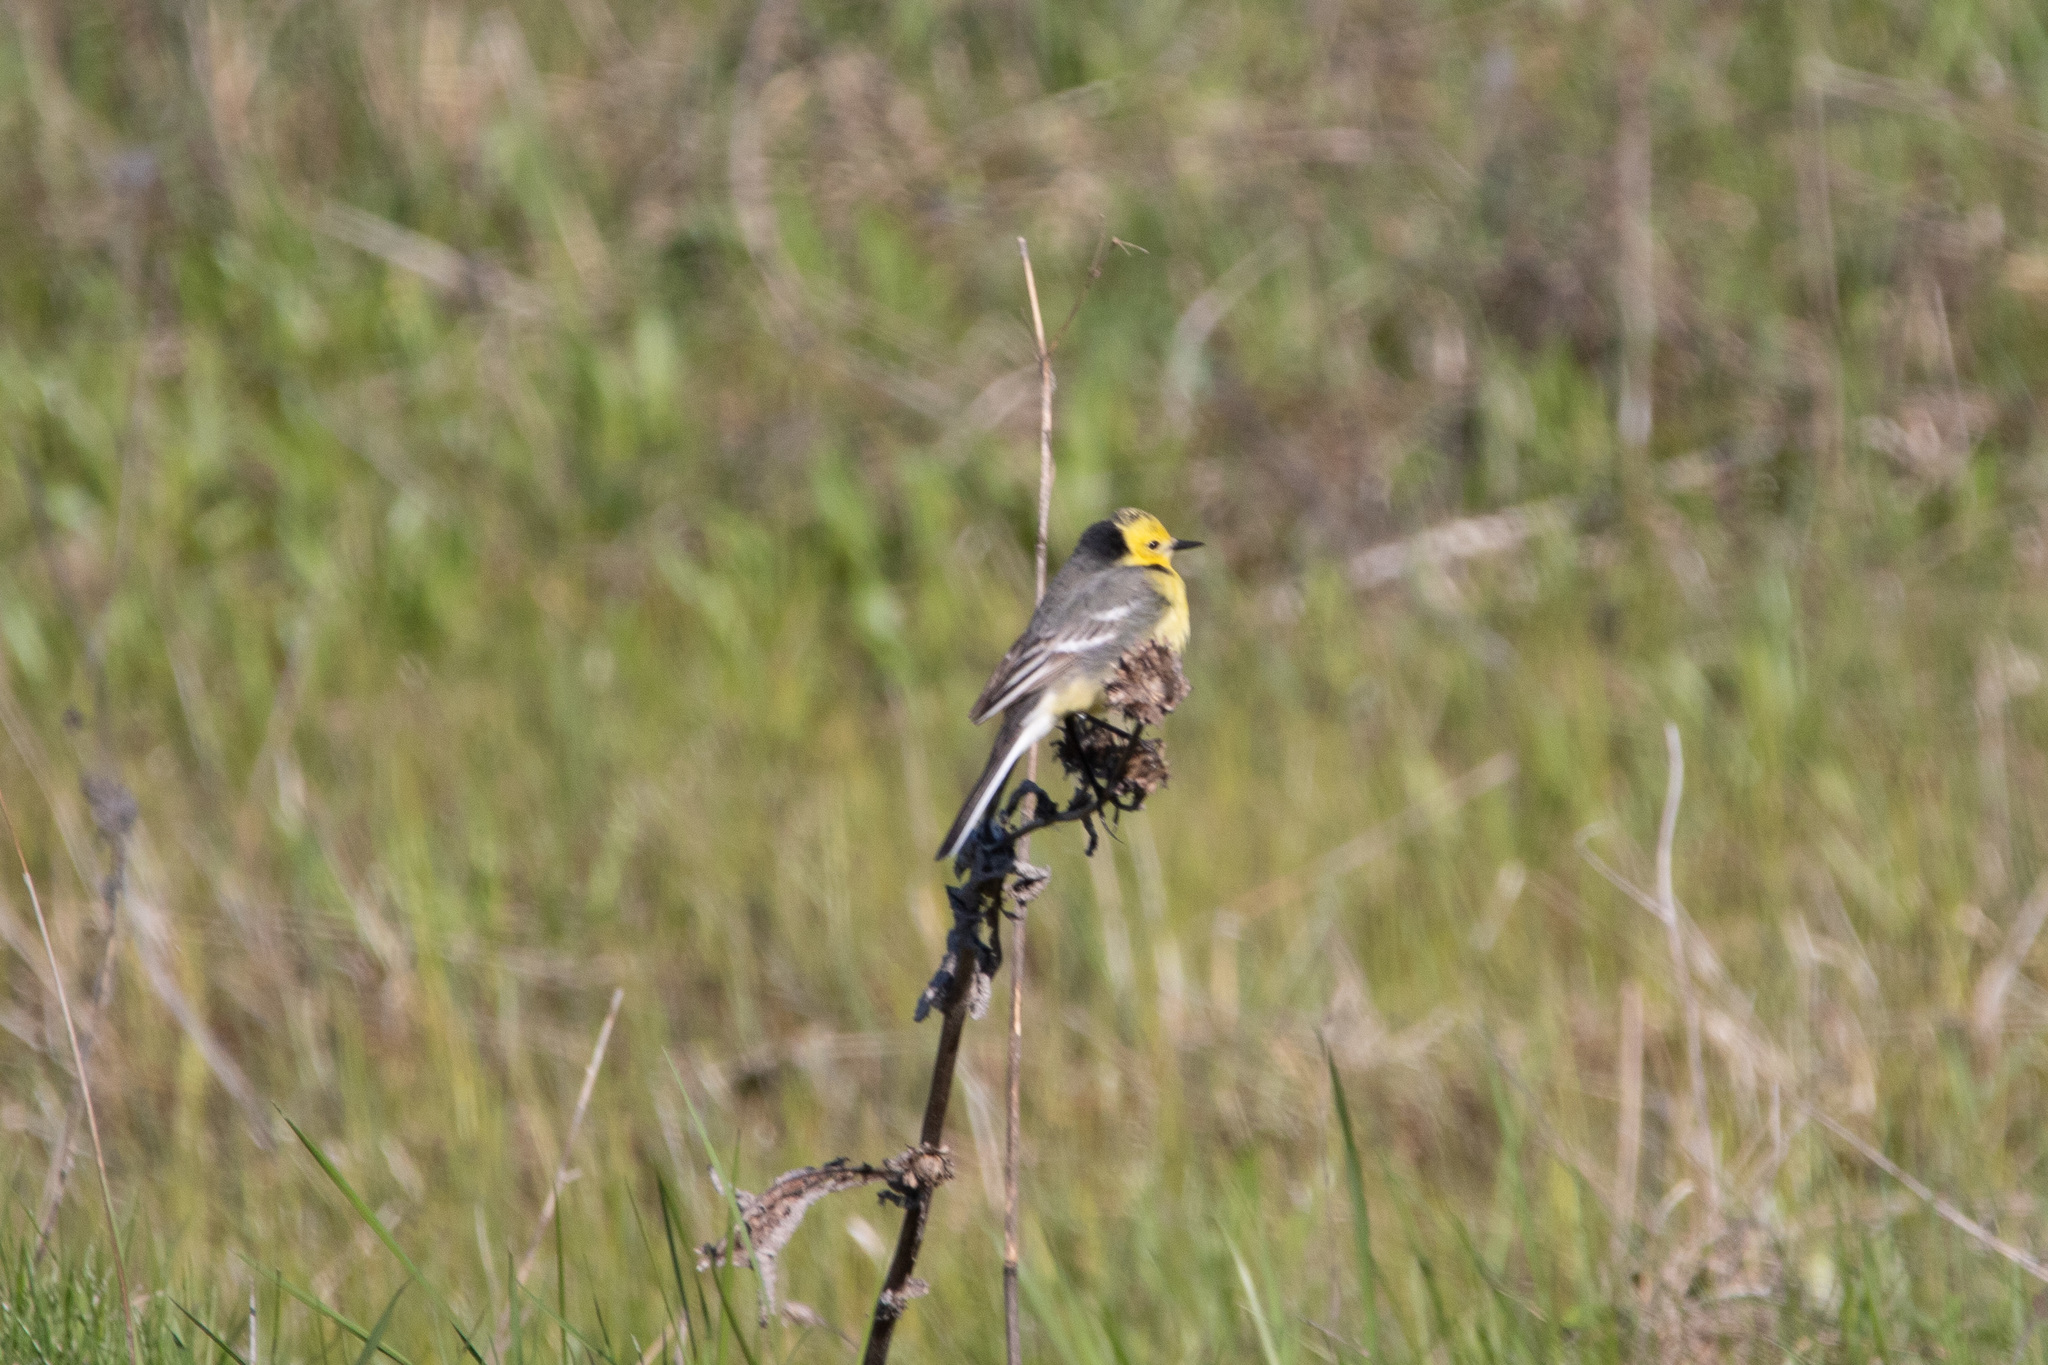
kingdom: Animalia
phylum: Chordata
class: Aves
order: Passeriformes
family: Motacillidae
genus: Motacilla
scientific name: Motacilla citreola
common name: Citrine wagtail
